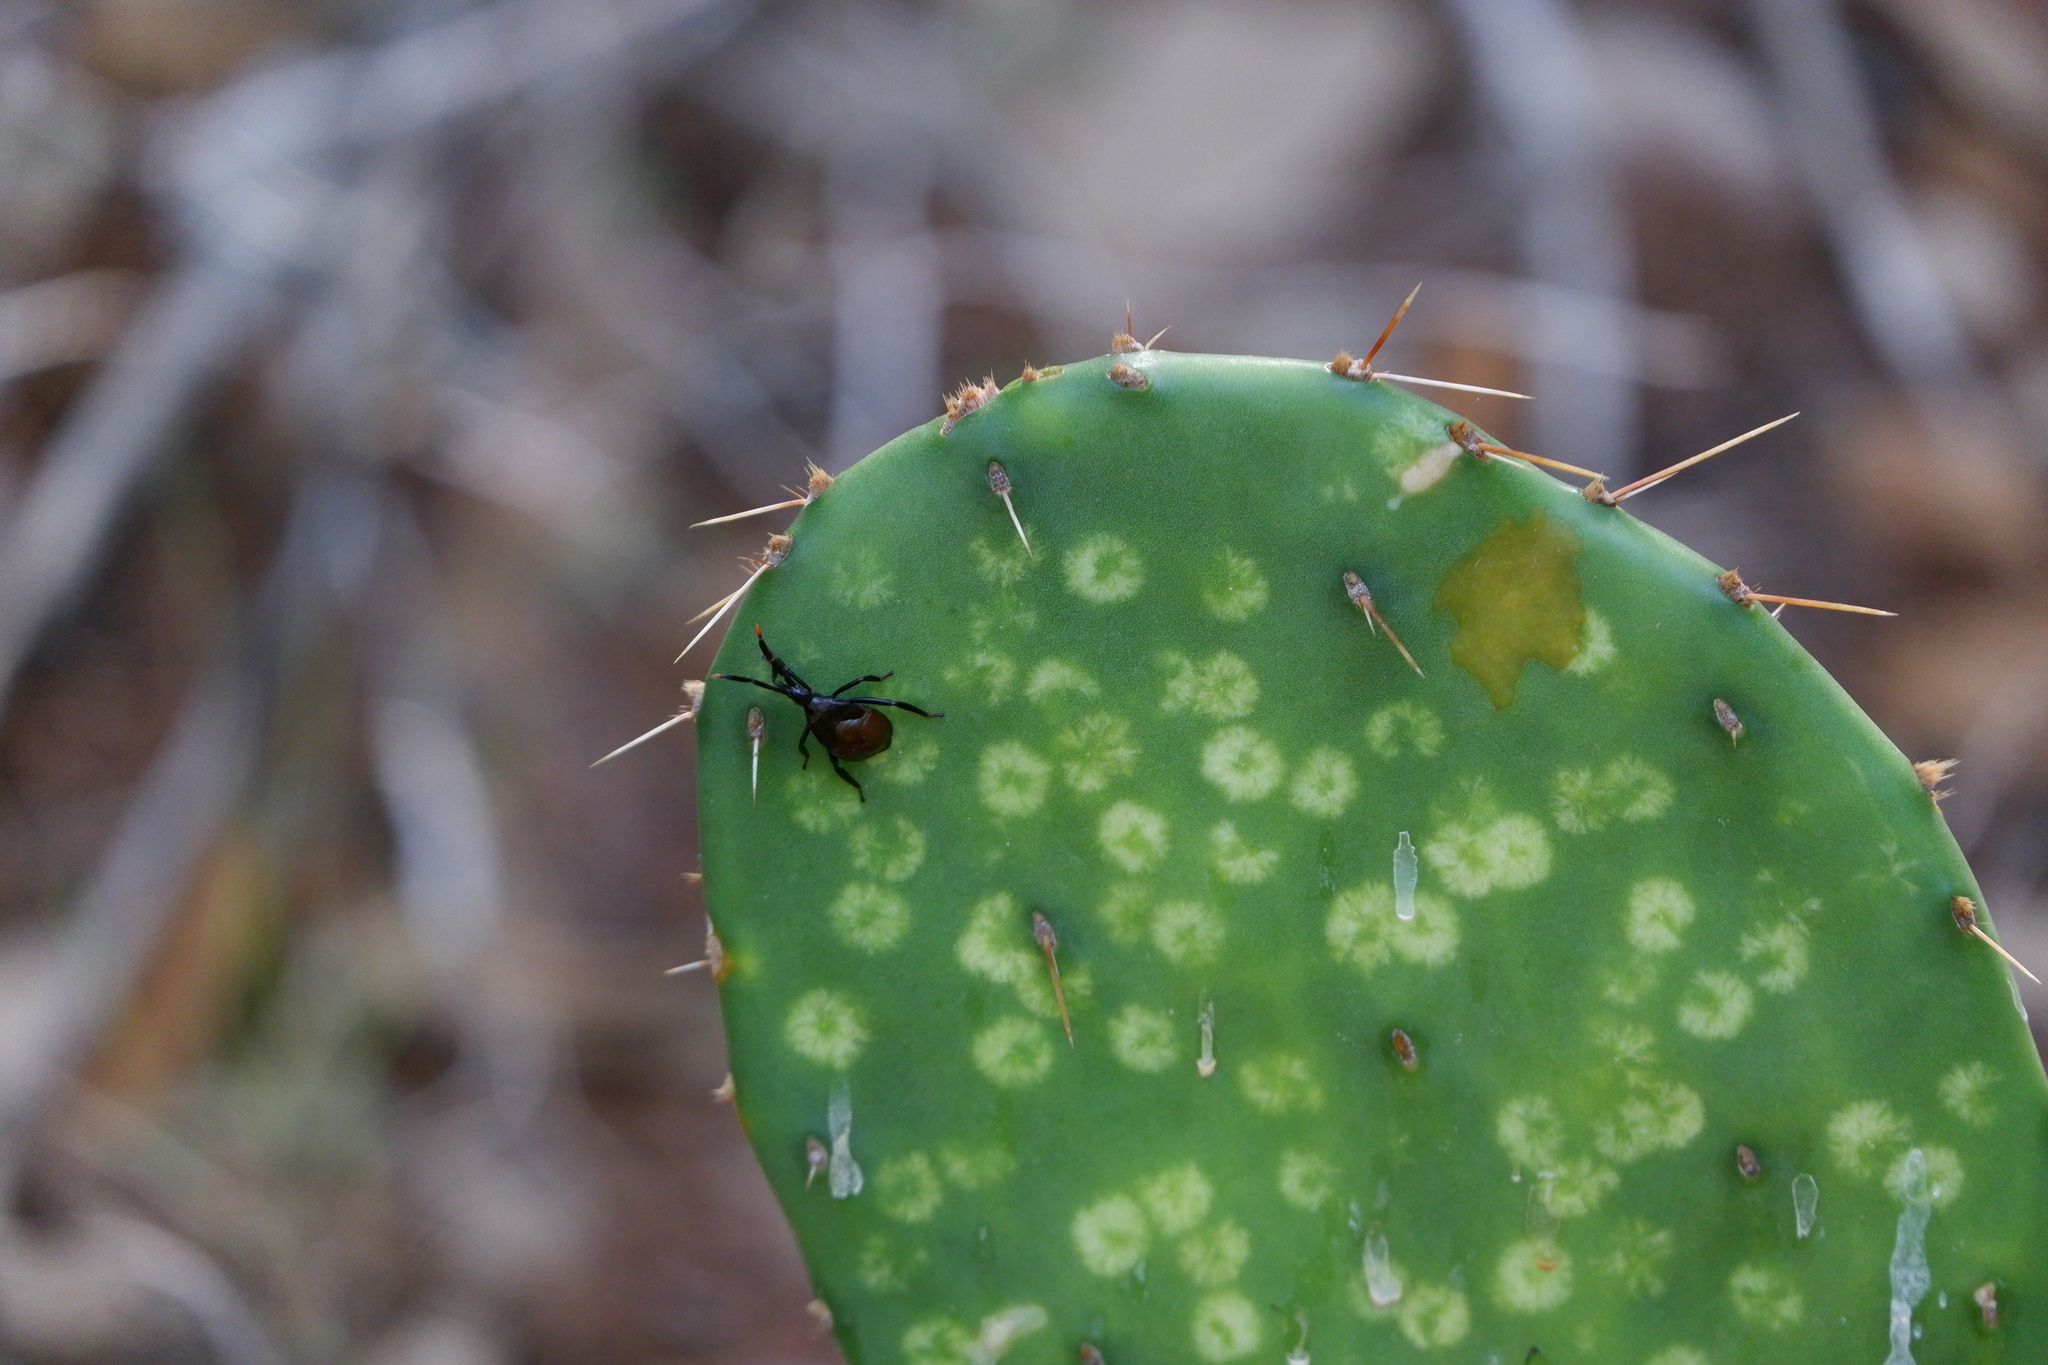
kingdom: Animalia
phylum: Arthropoda
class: Insecta
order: Hemiptera
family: Coreidae
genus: Chelinidea
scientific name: Chelinidea vittiger
